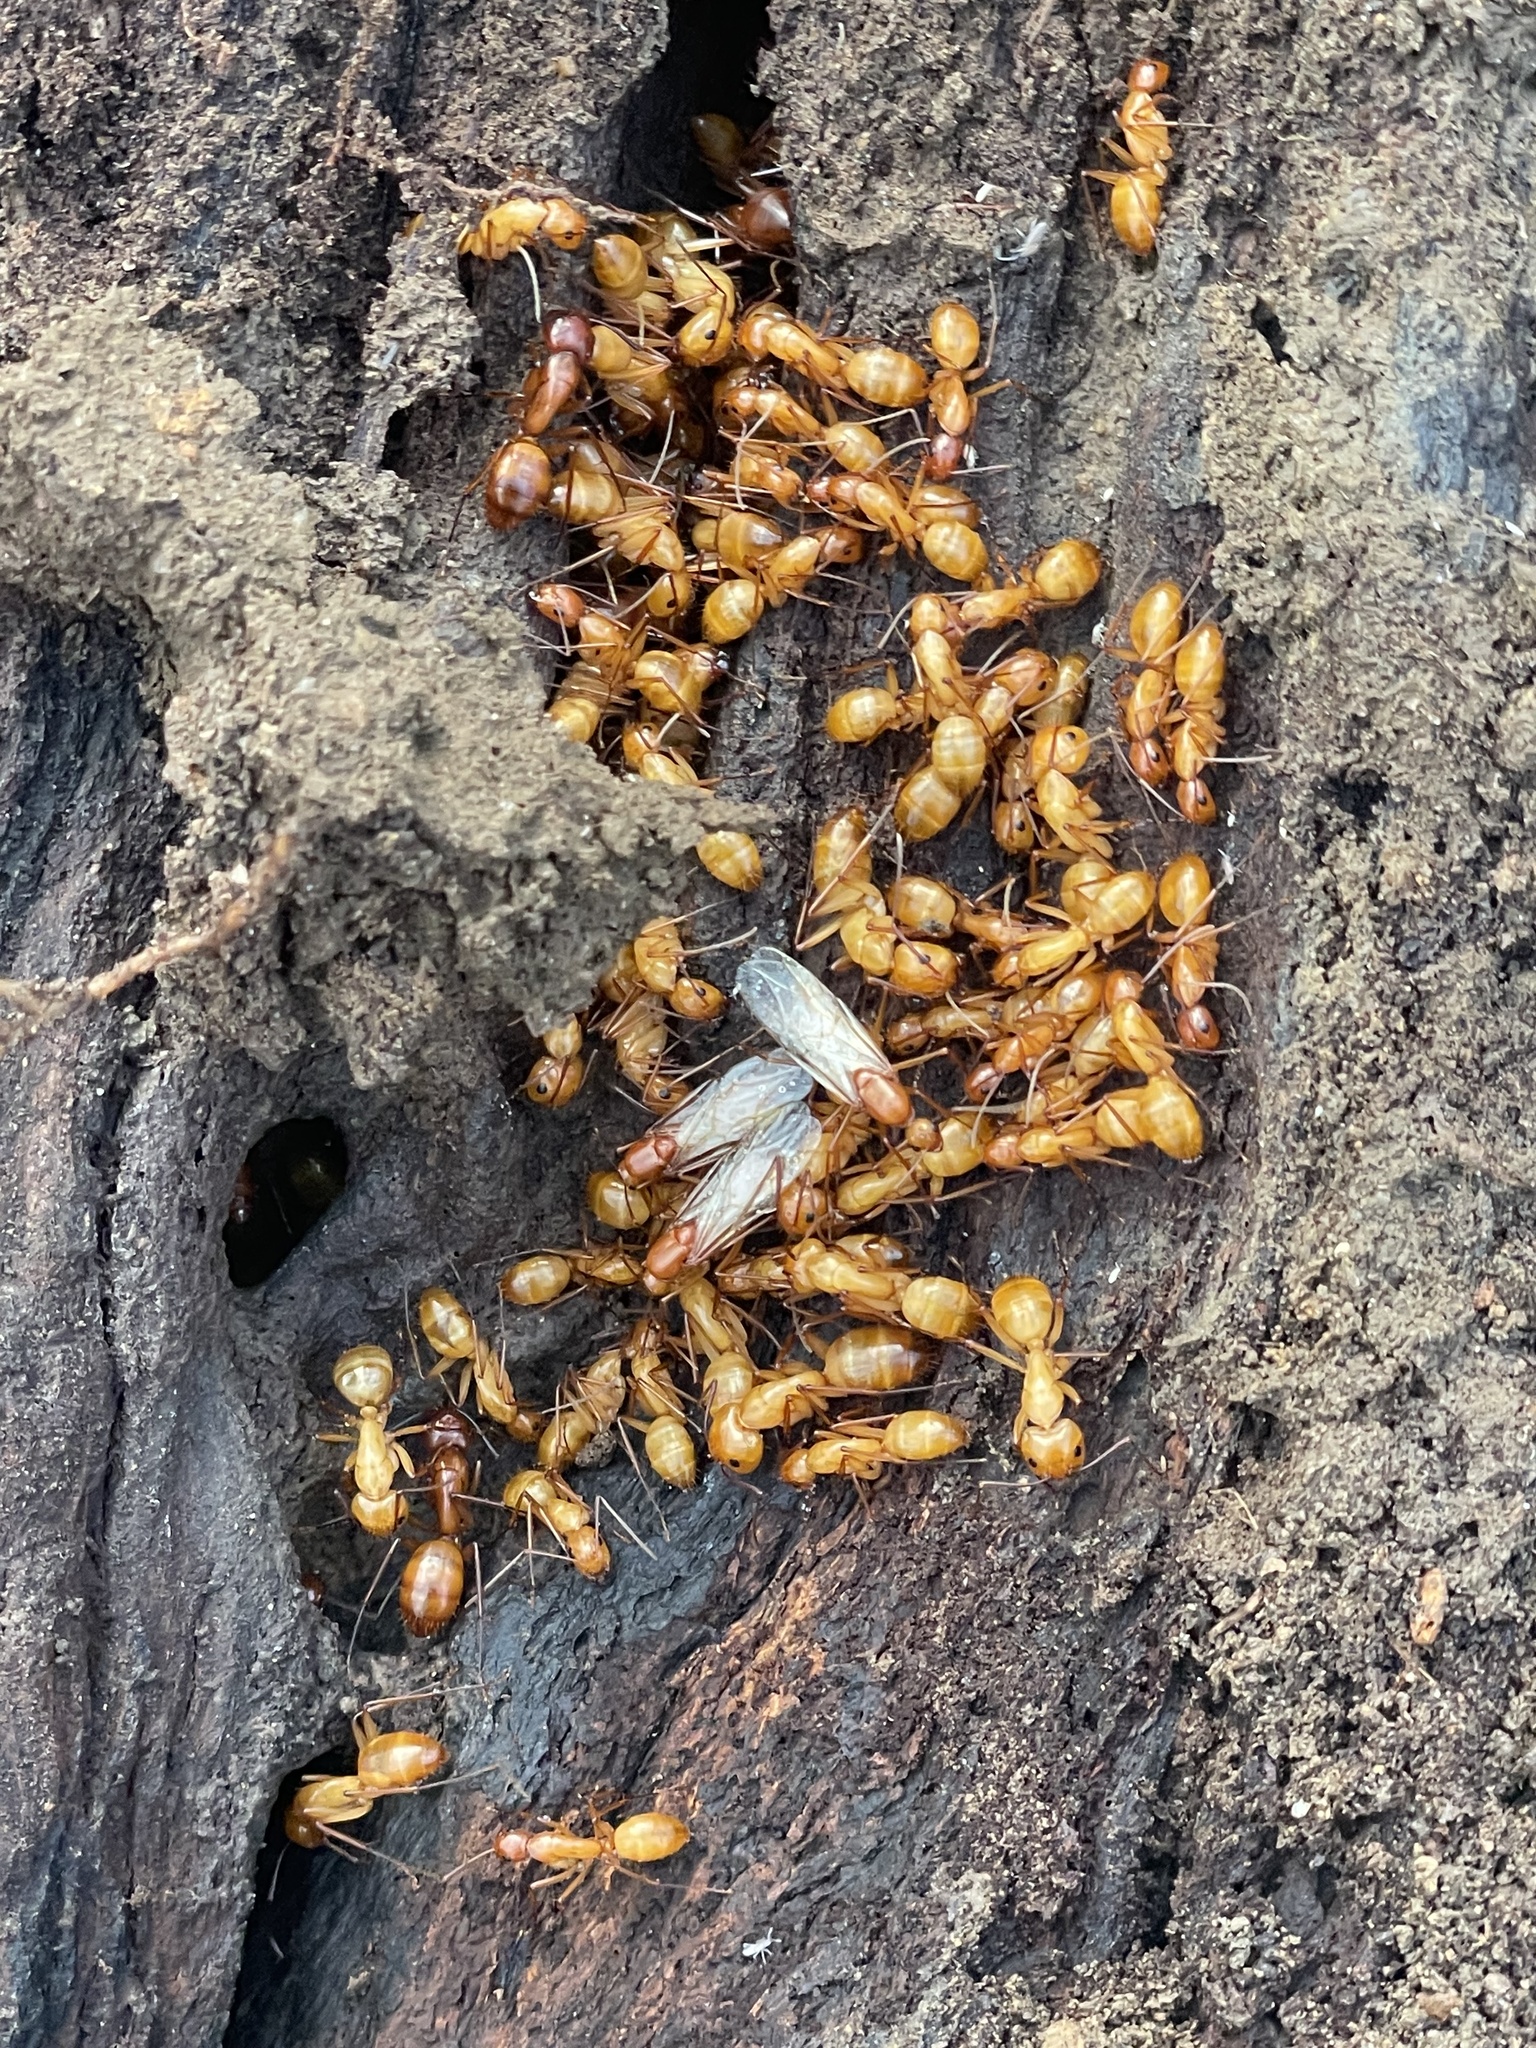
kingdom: Animalia
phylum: Arthropoda
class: Insecta
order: Hymenoptera
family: Formicidae
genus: Camponotus
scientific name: Camponotus castaneus
